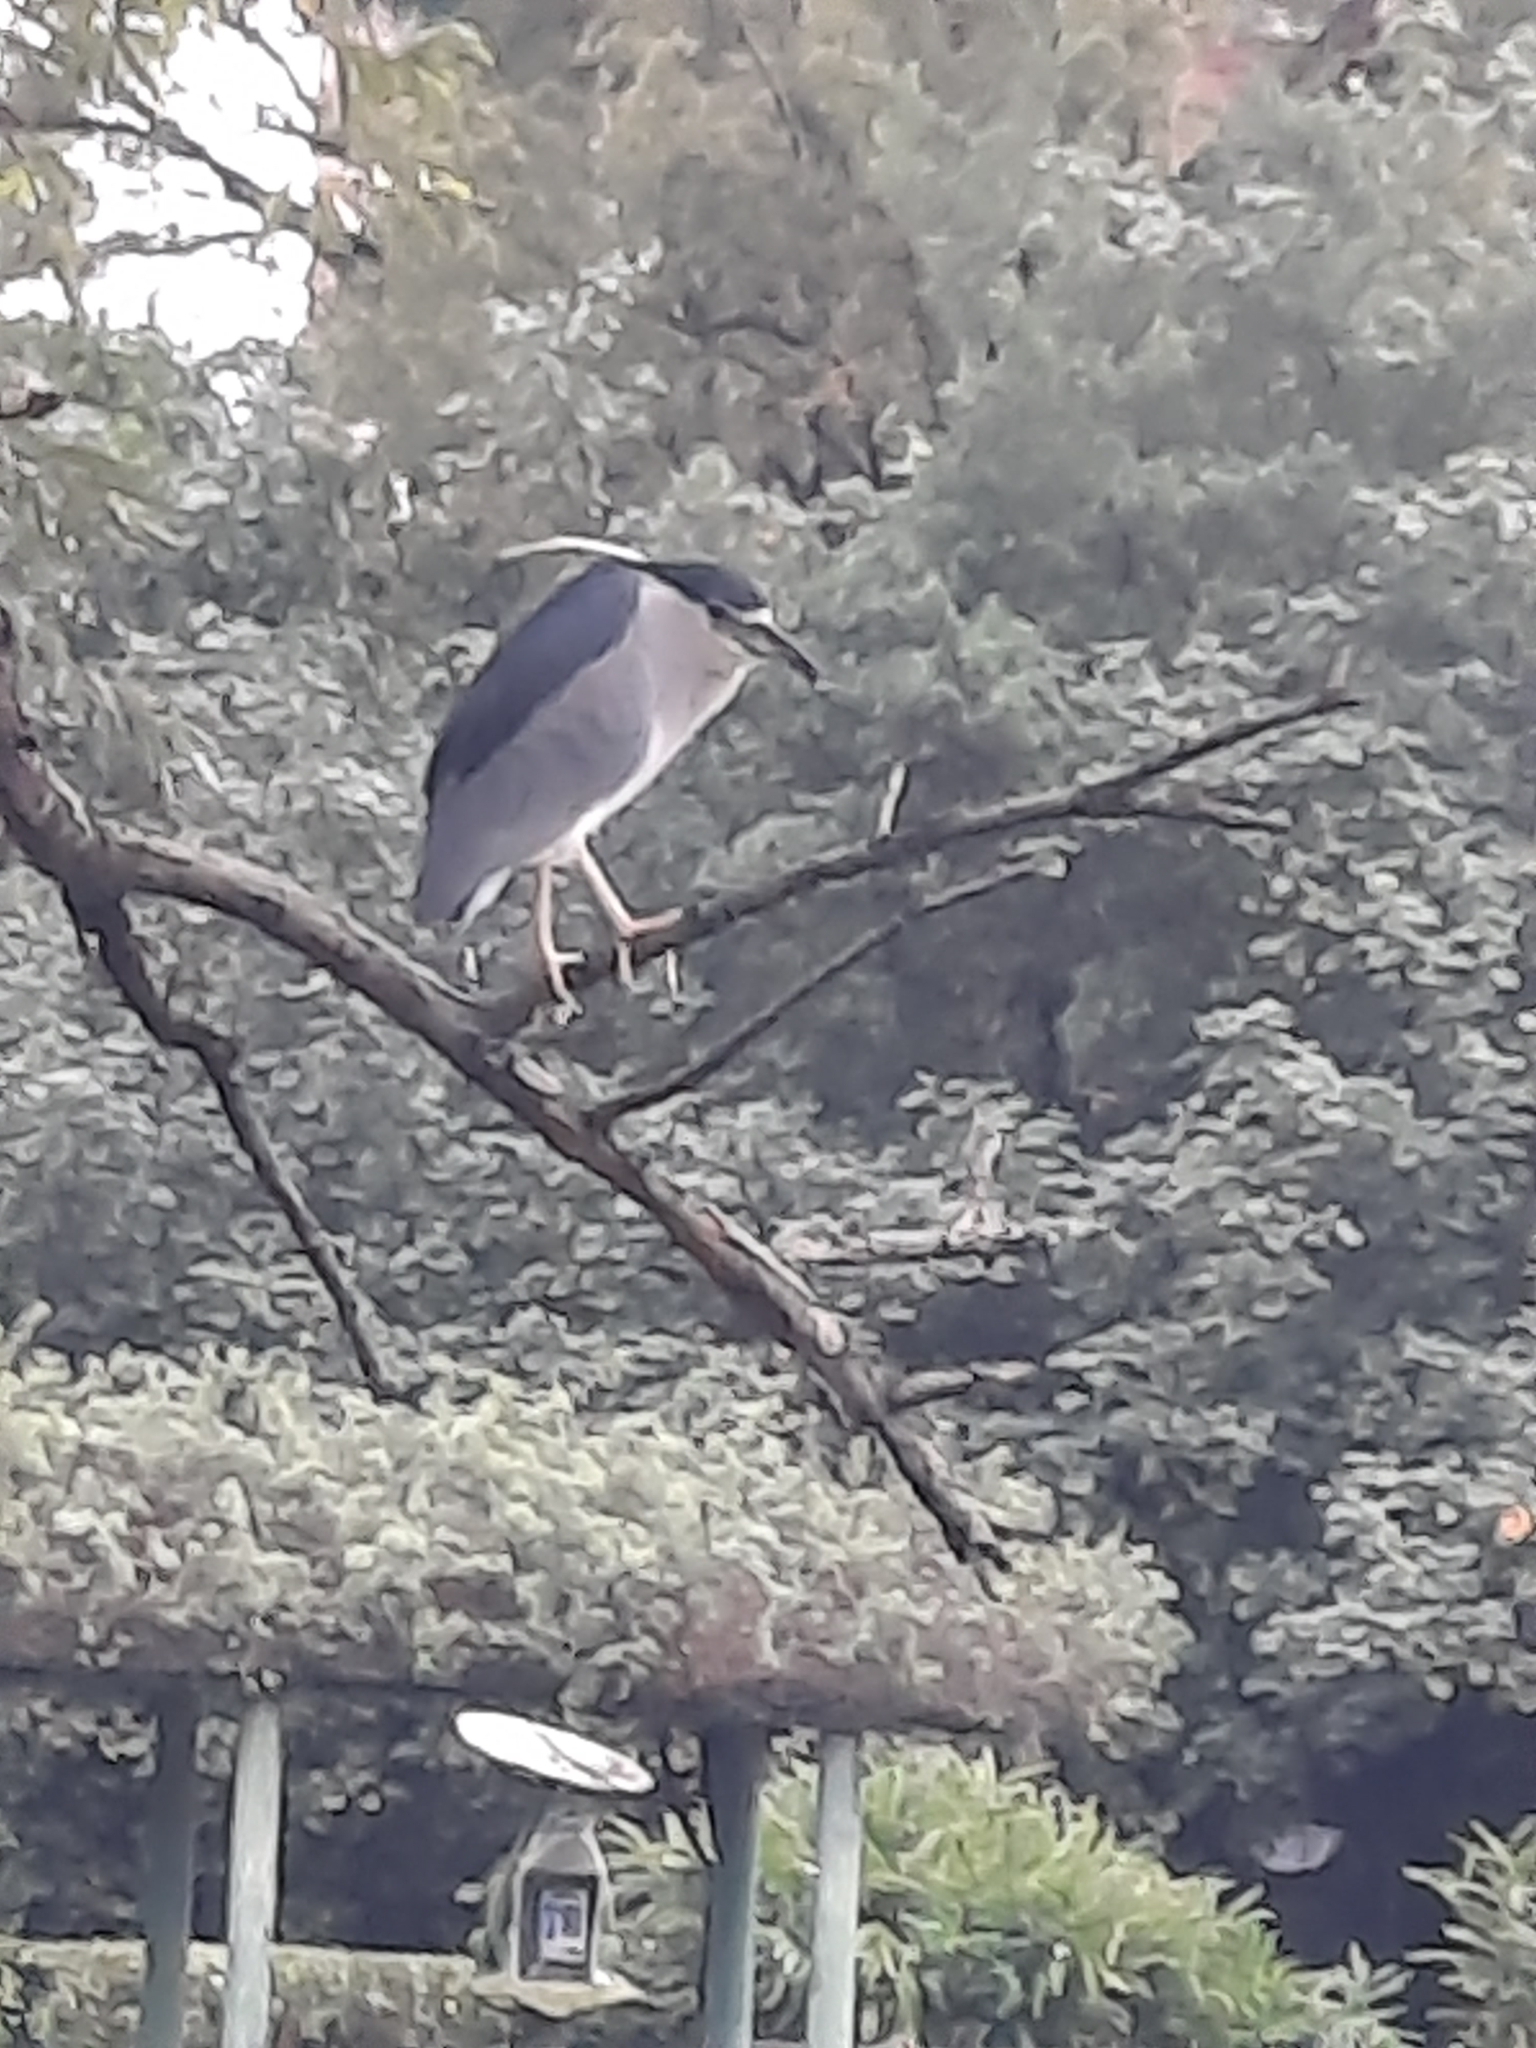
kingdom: Animalia
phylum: Chordata
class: Aves
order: Pelecaniformes
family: Ardeidae
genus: Nycticorax
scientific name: Nycticorax nycticorax
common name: Black-crowned night heron
